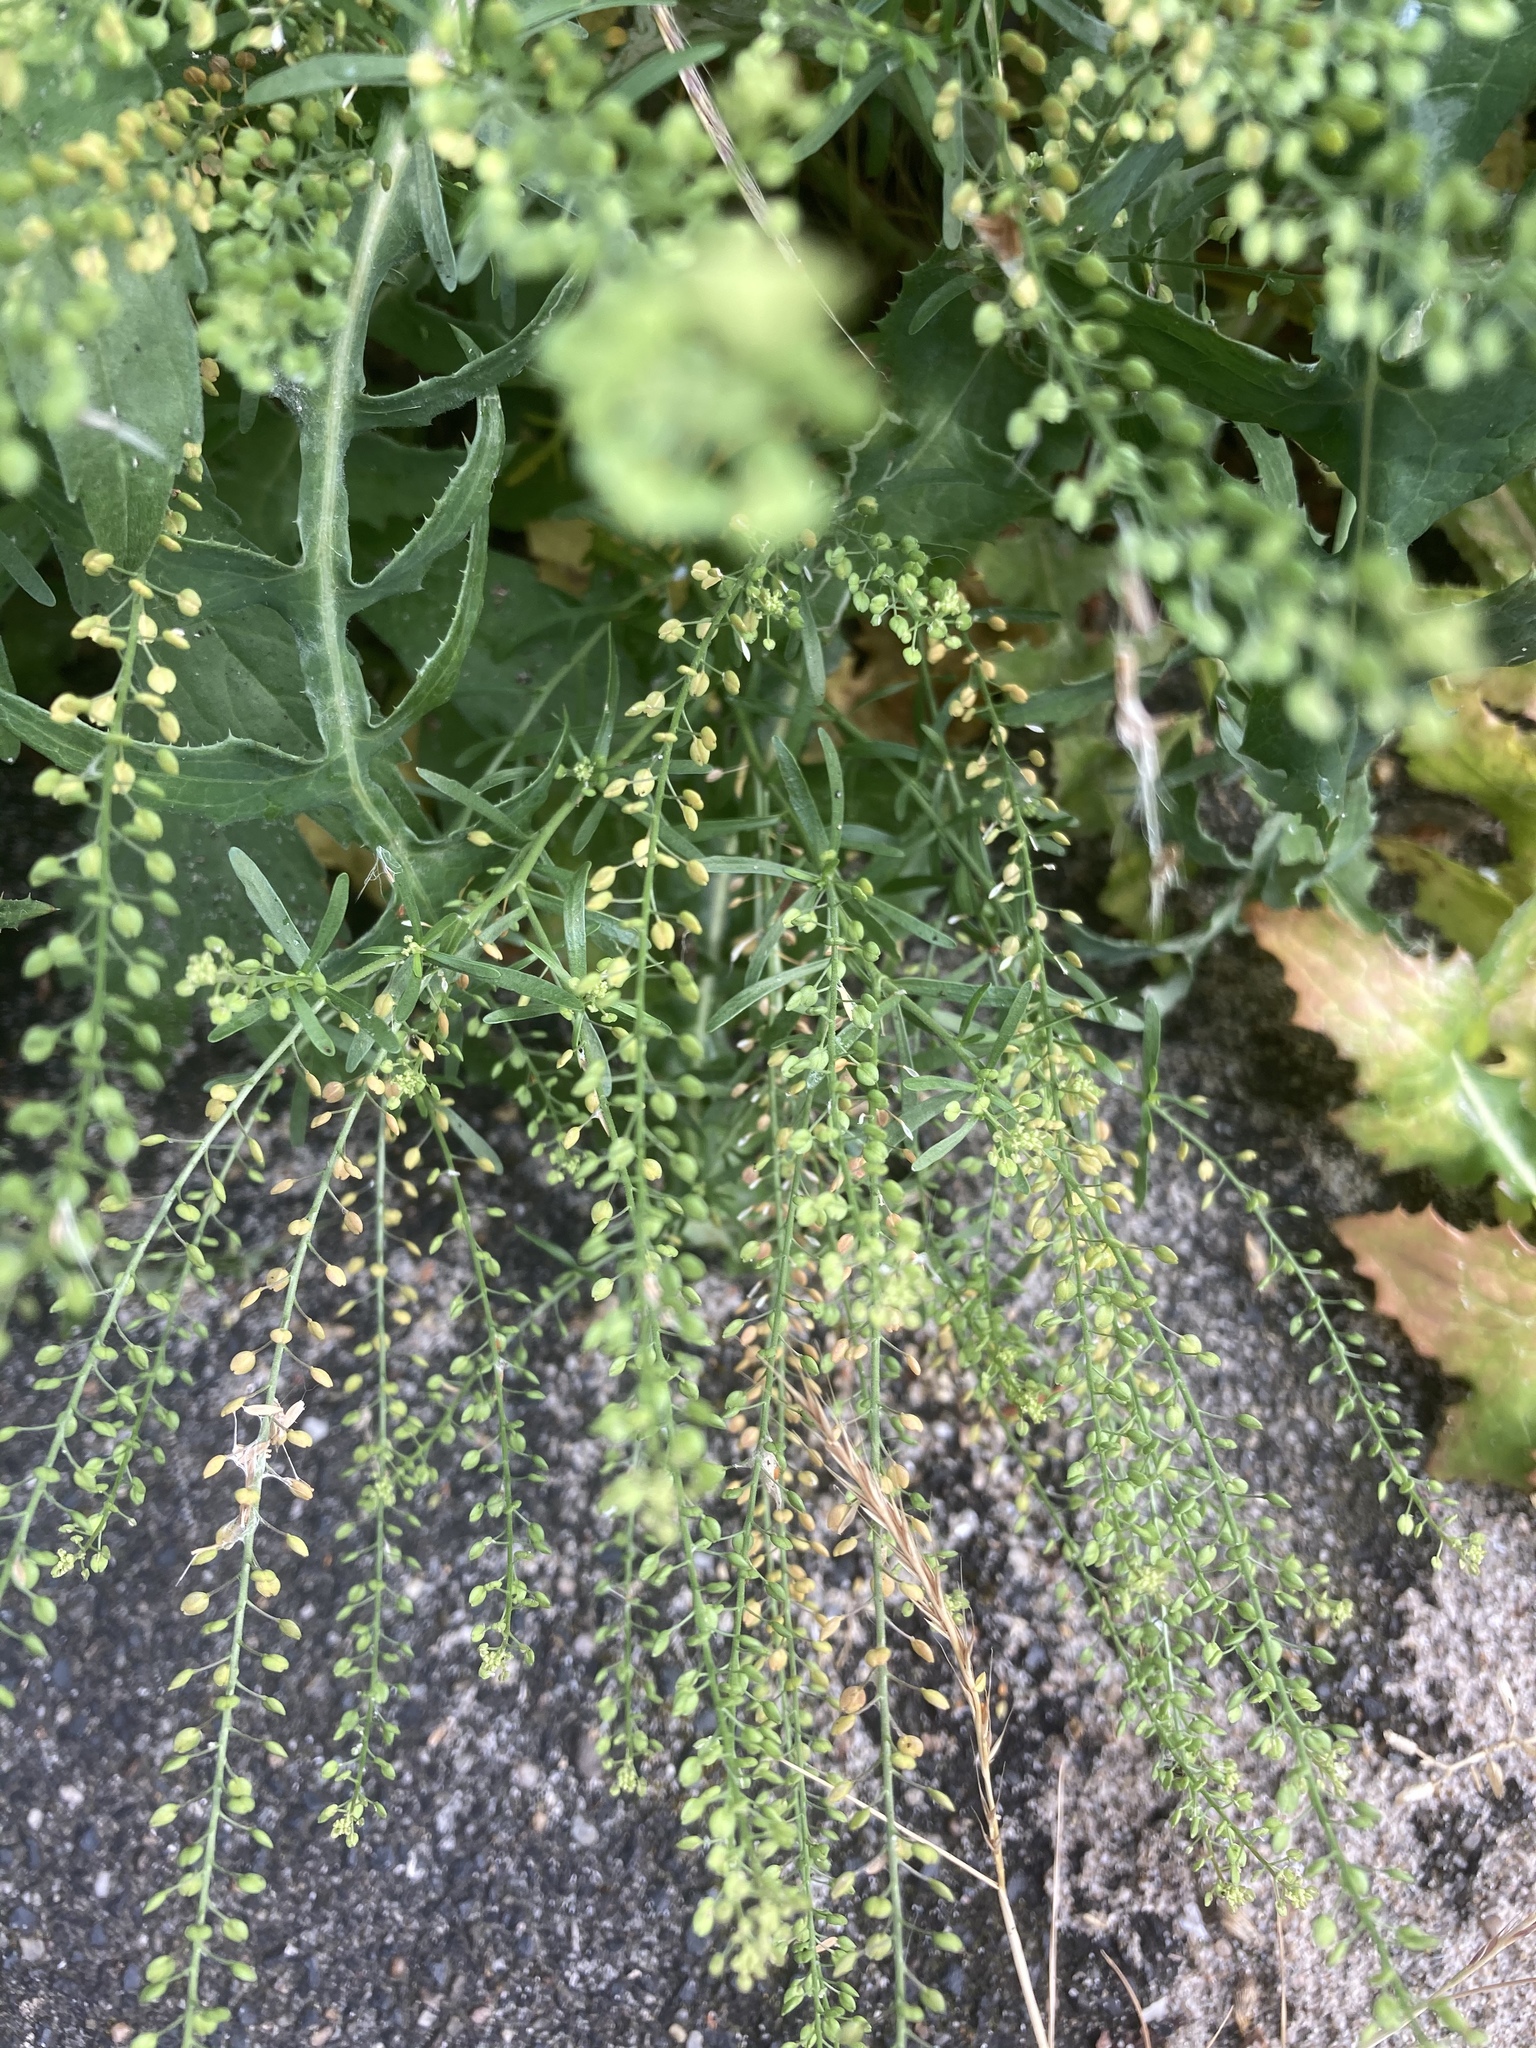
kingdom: Plantae
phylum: Tracheophyta
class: Magnoliopsida
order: Brassicales
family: Brassicaceae
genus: Lepidium
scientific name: Lepidium ruderale
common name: Narrow-leaved pepperwort
